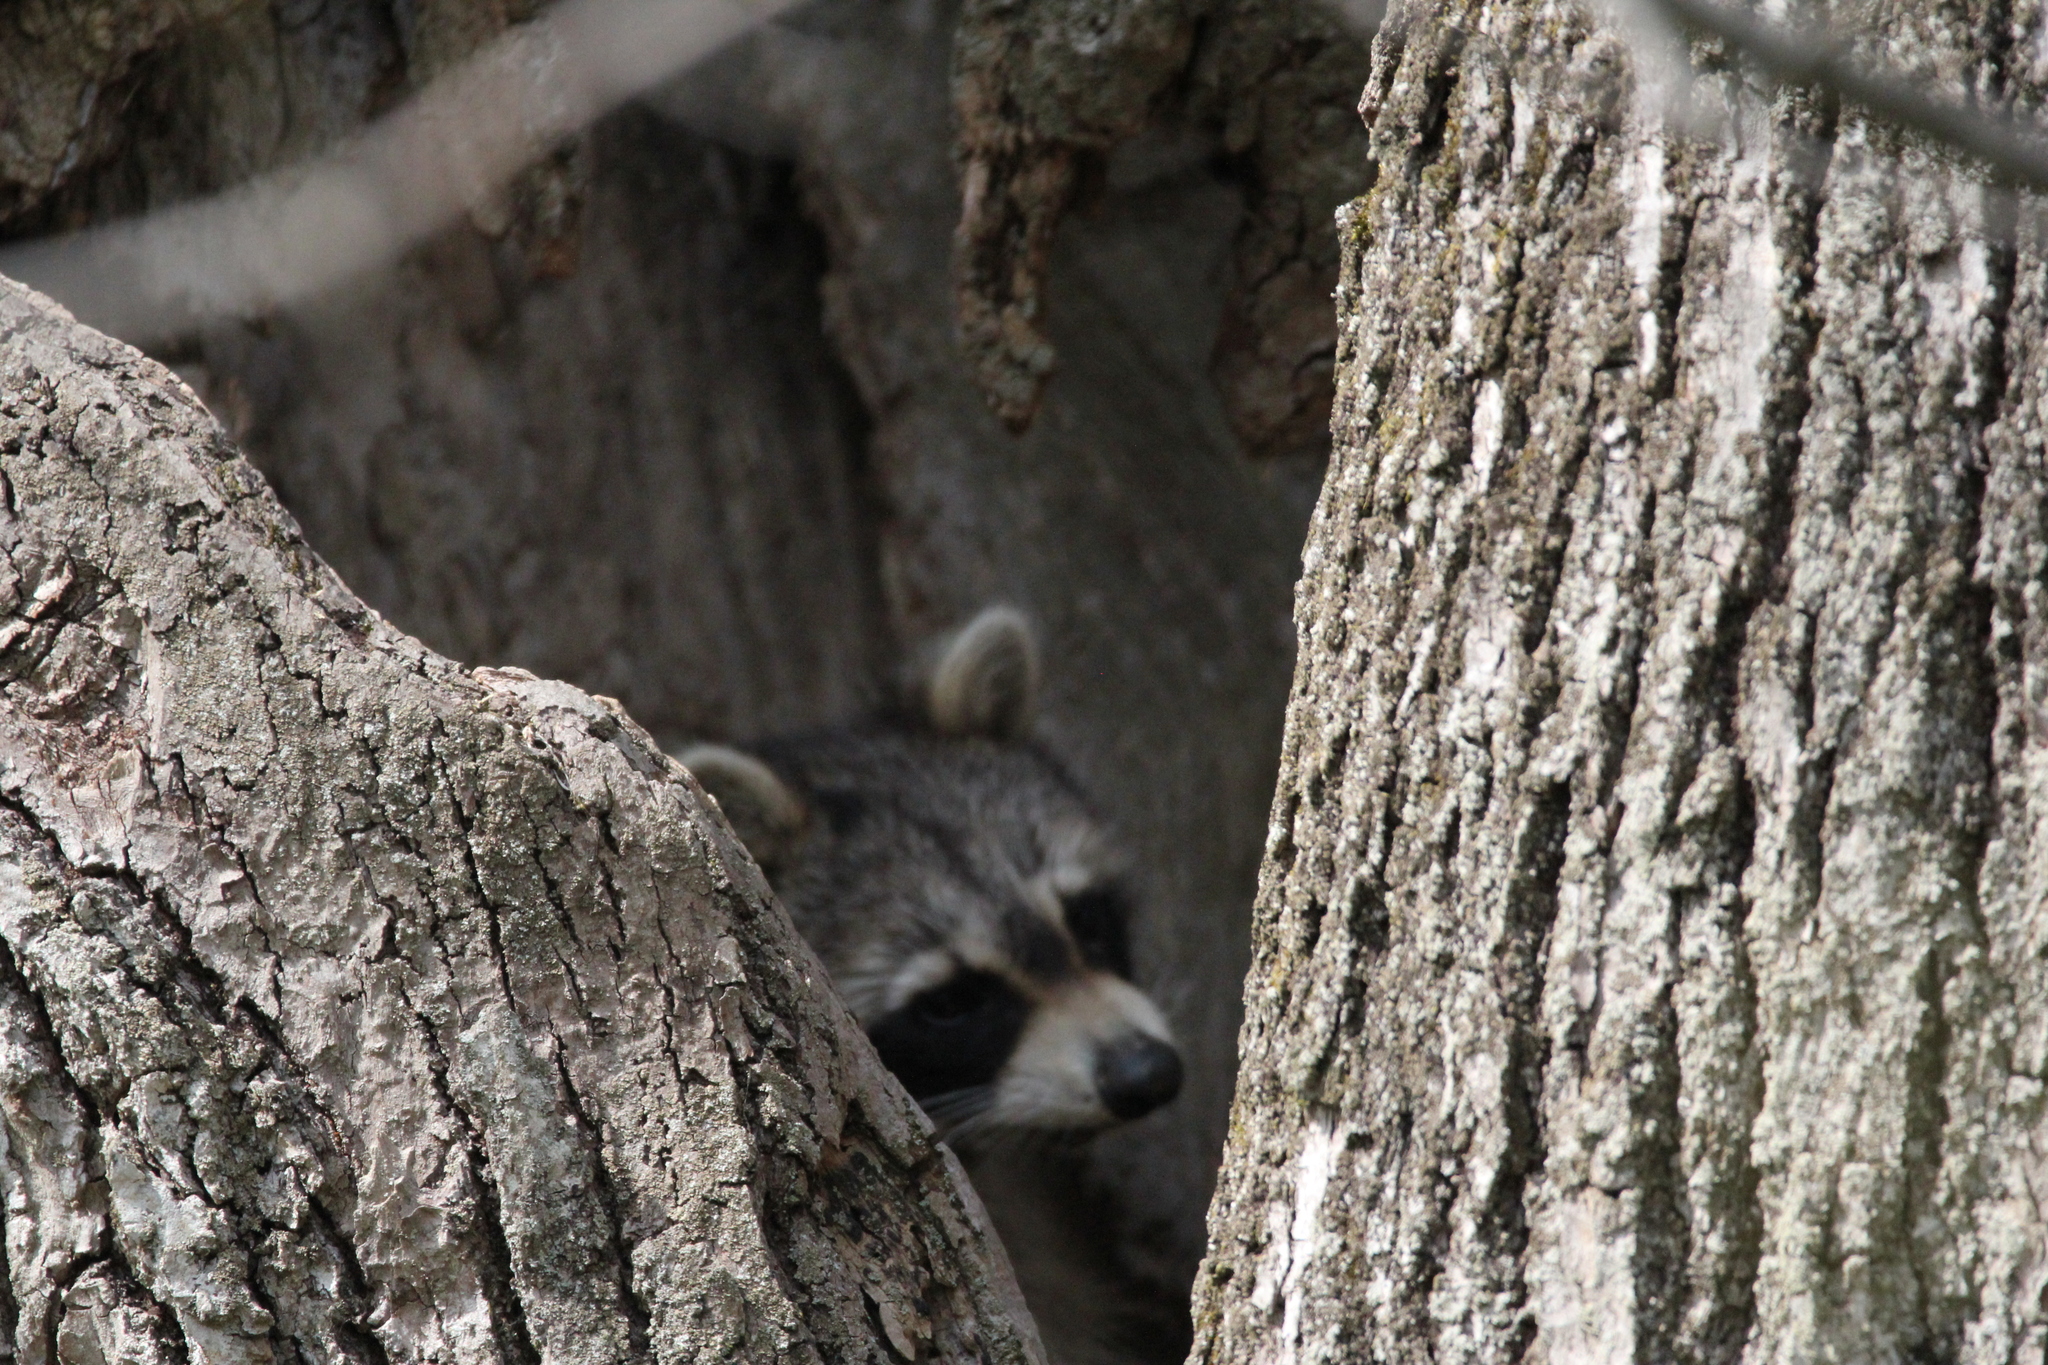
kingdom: Animalia
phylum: Chordata
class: Mammalia
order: Carnivora
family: Procyonidae
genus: Procyon
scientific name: Procyon lotor
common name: Raccoon
